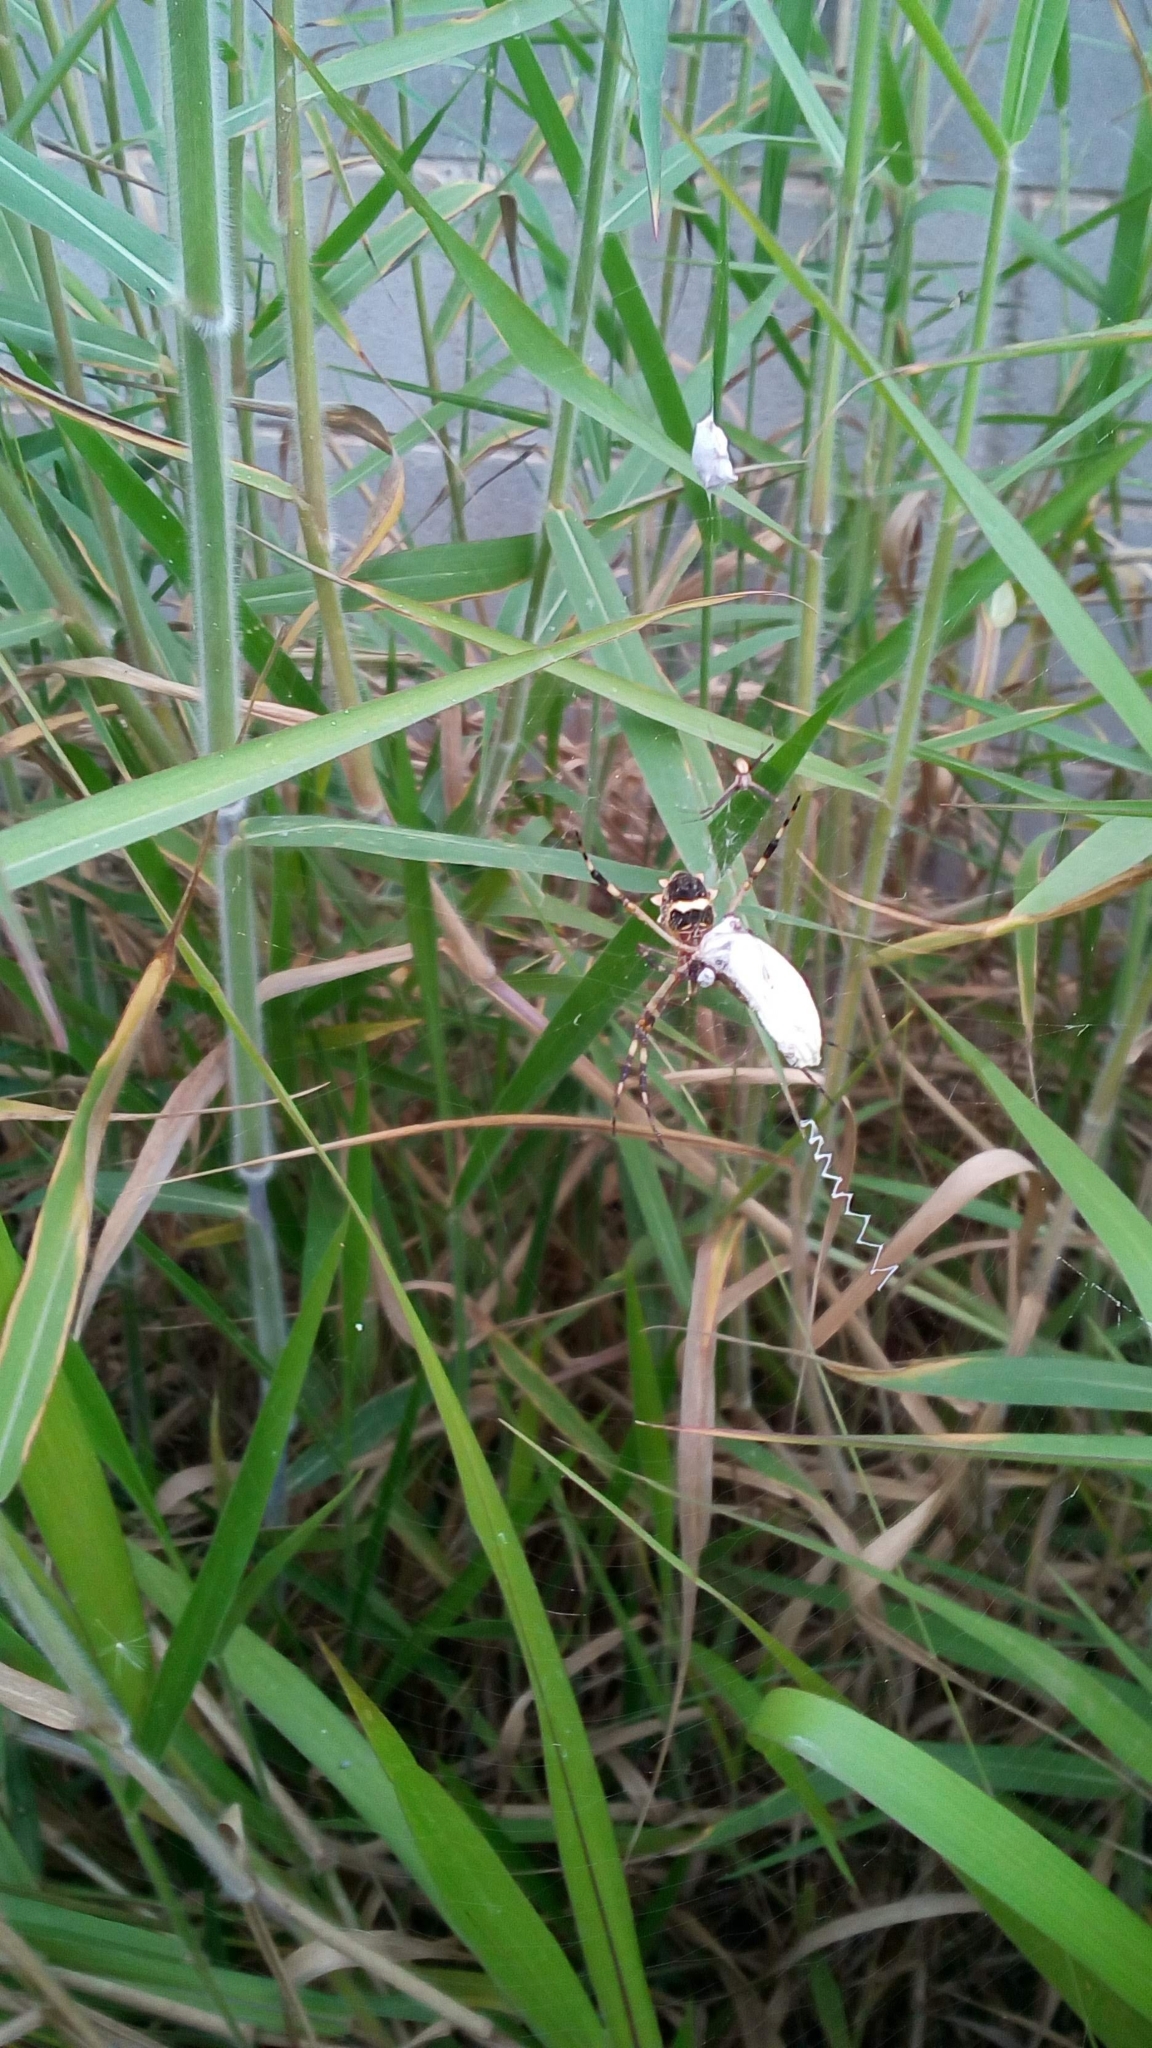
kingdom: Animalia
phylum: Arthropoda
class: Arachnida
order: Araneae
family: Araneidae
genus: Argiope
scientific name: Argiope argentata
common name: Orb weavers
